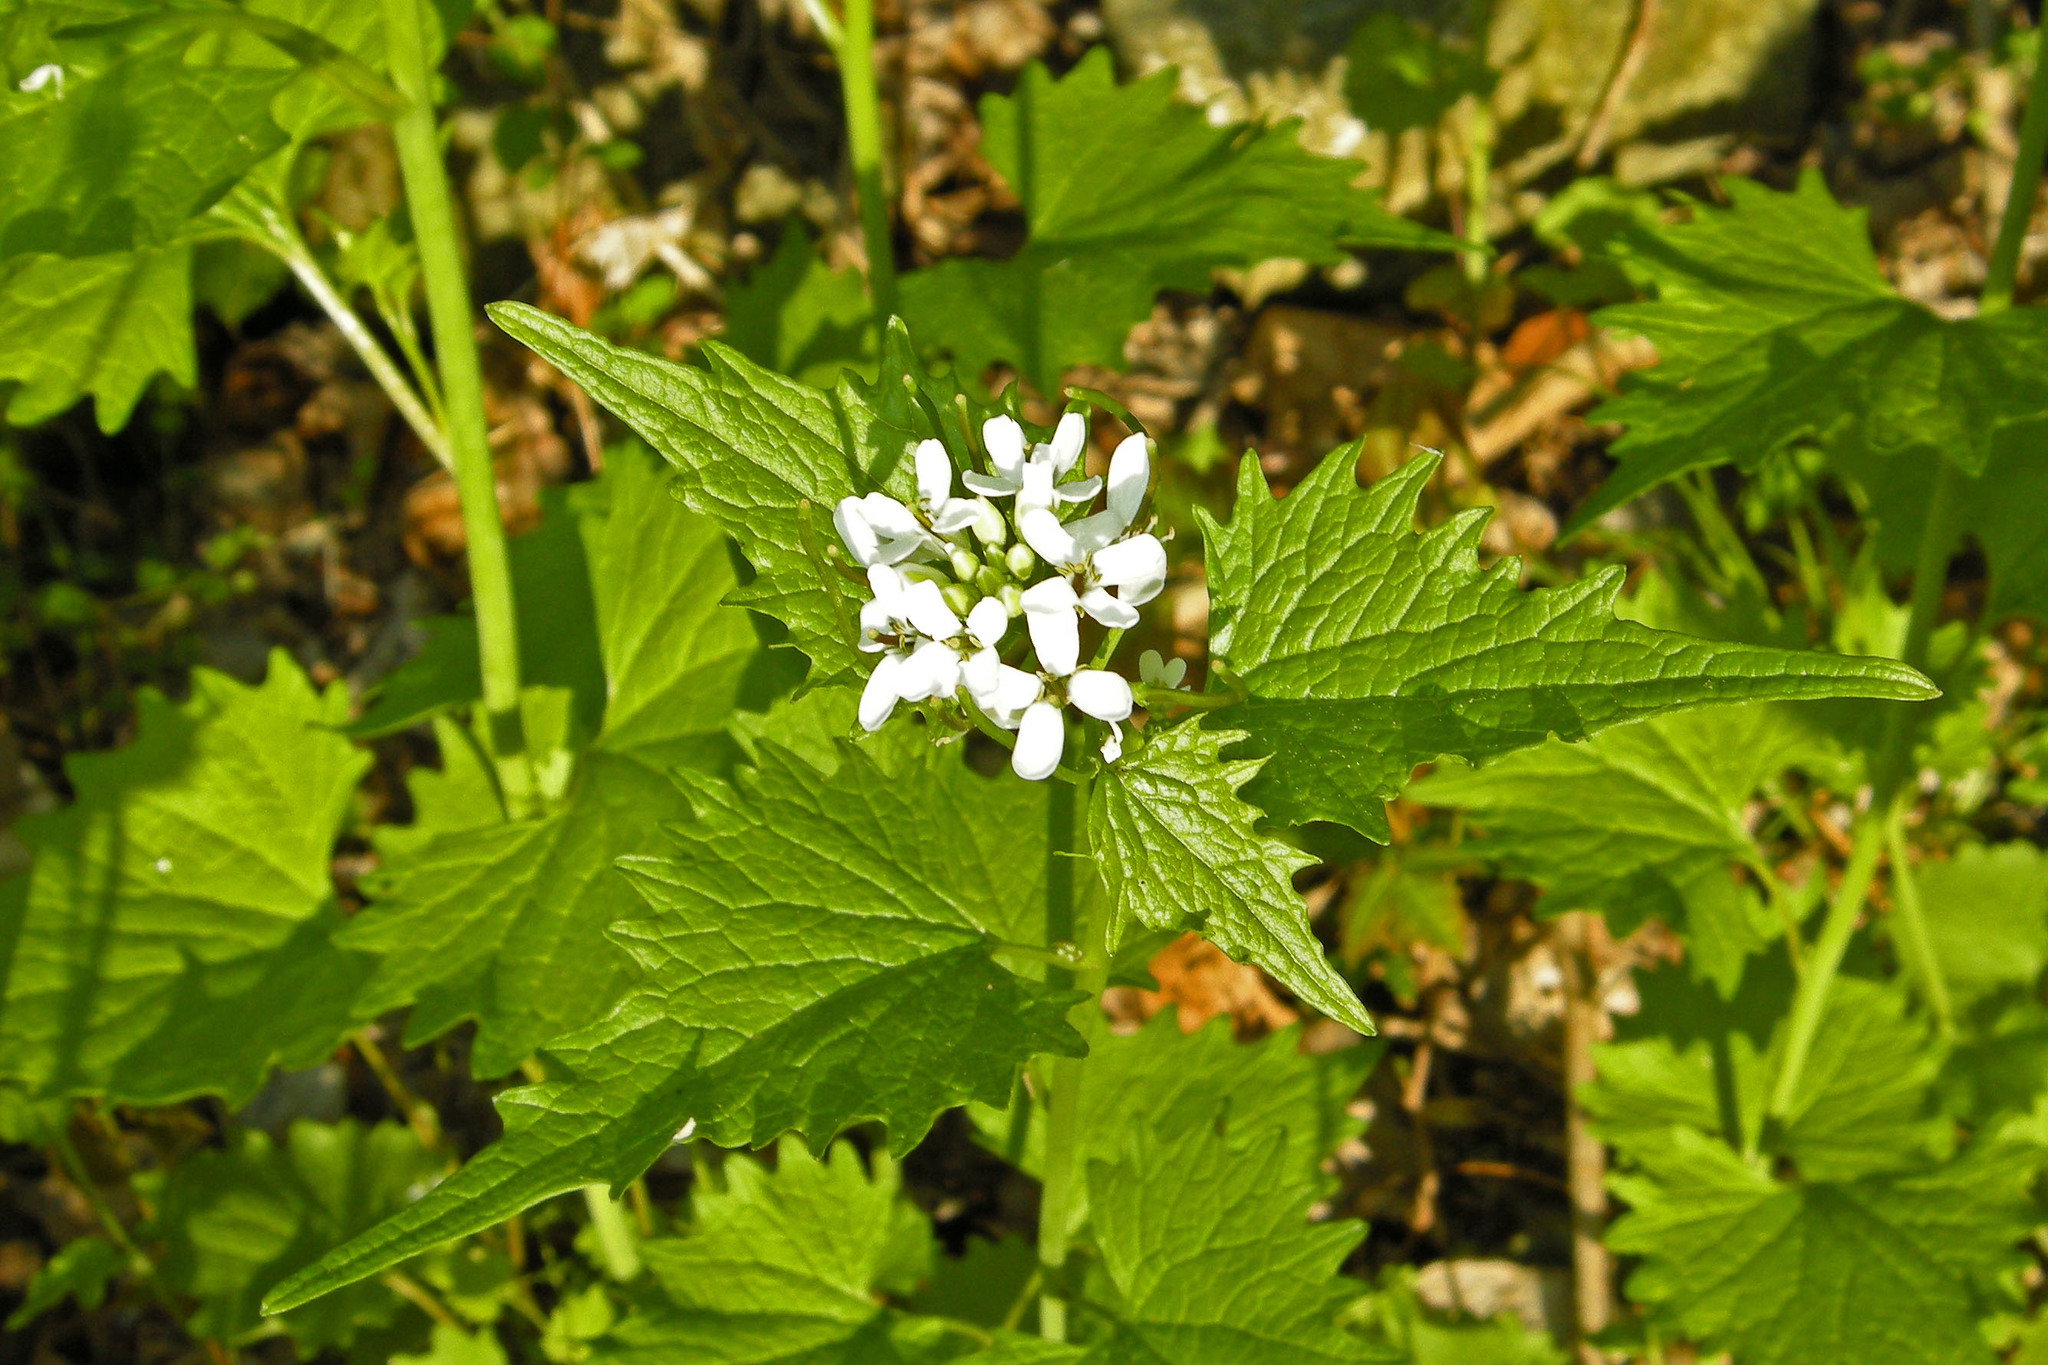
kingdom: Plantae
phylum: Tracheophyta
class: Magnoliopsida
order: Brassicales
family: Brassicaceae
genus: Alliaria
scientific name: Alliaria petiolata
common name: Garlic mustard
